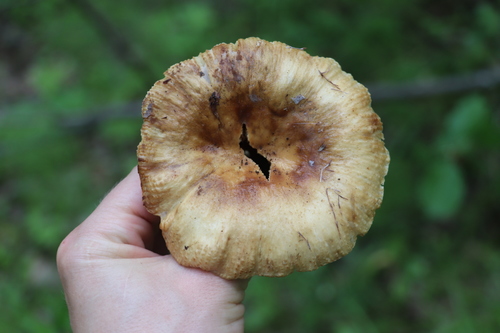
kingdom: Fungi
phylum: Basidiomycota
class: Agaricomycetes
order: Russulales
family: Russulaceae
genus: Russula
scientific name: Russula foetens
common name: Foetid russula
